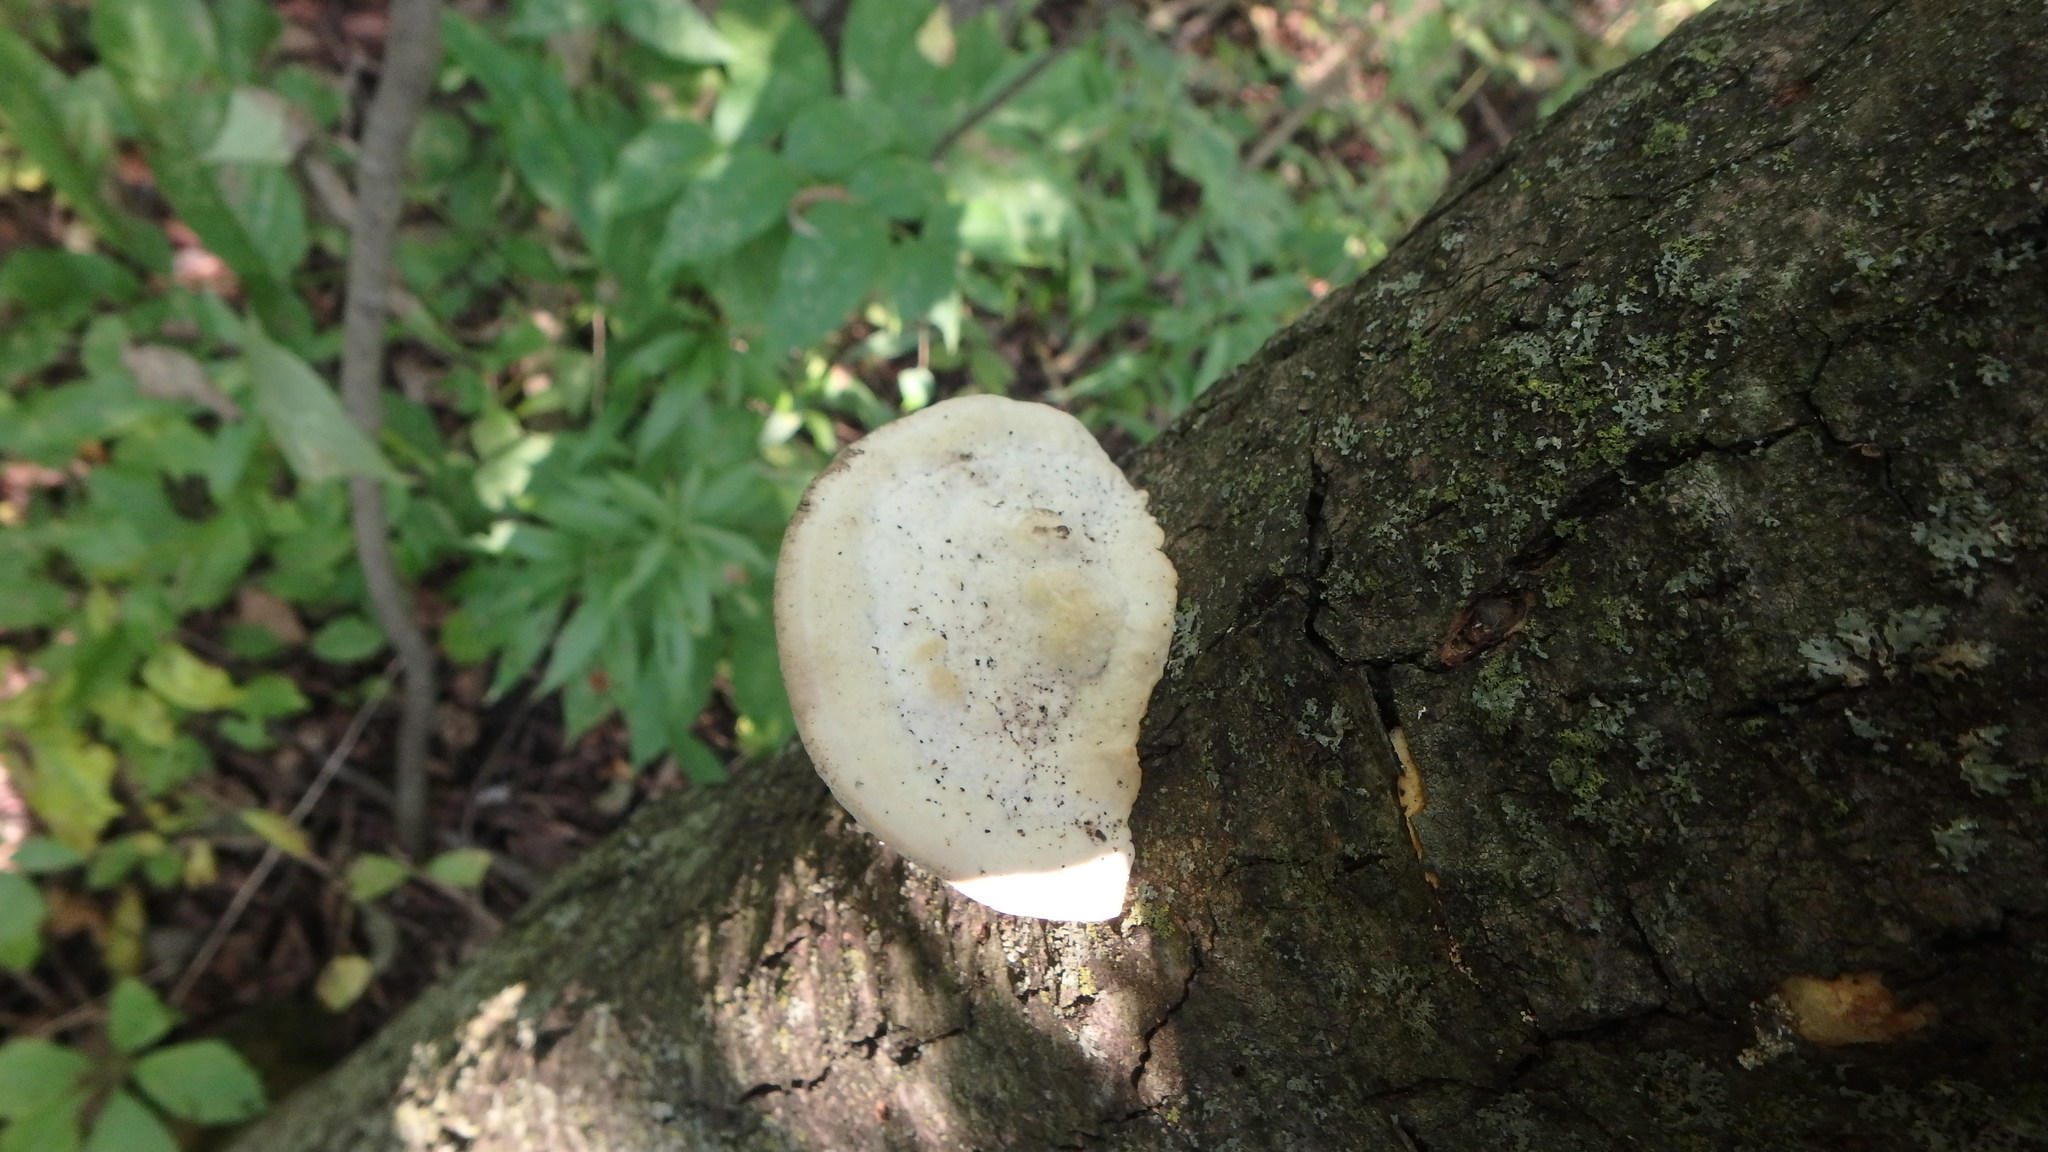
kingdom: Fungi
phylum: Basidiomycota
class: Agaricomycetes
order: Polyporales
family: Polyporaceae
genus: Trametes
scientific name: Trametes gibbosa
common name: Lumpy bracket
